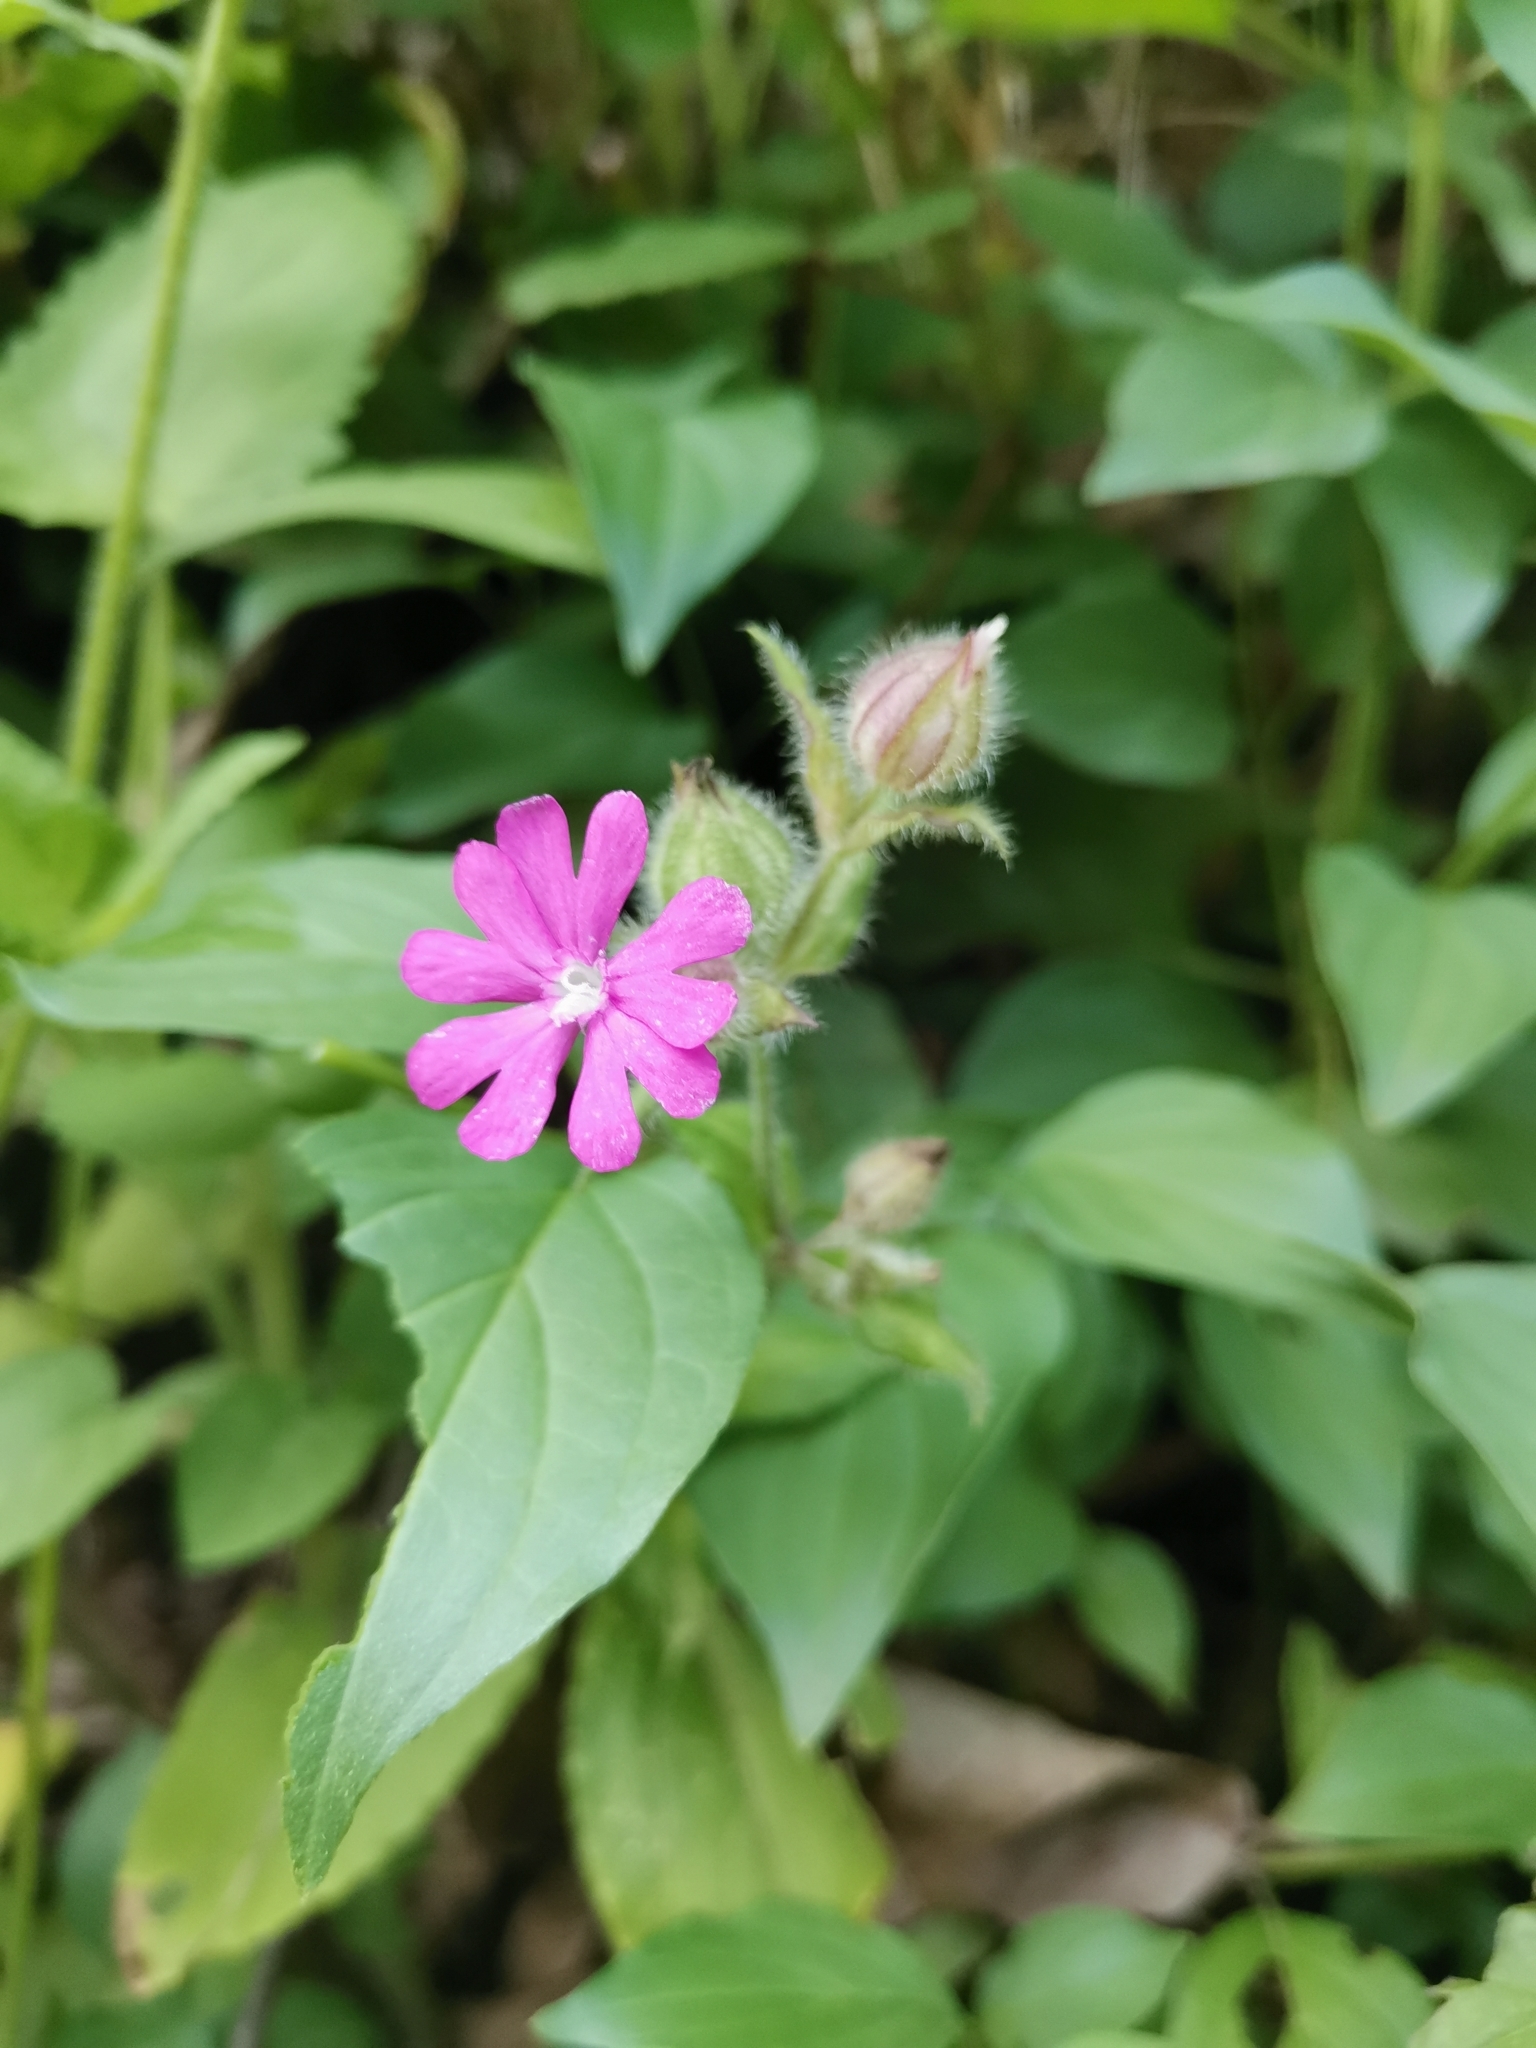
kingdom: Plantae
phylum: Tracheophyta
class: Magnoliopsida
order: Caryophyllales
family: Caryophyllaceae
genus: Silene
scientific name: Silene dioica
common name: Red campion
